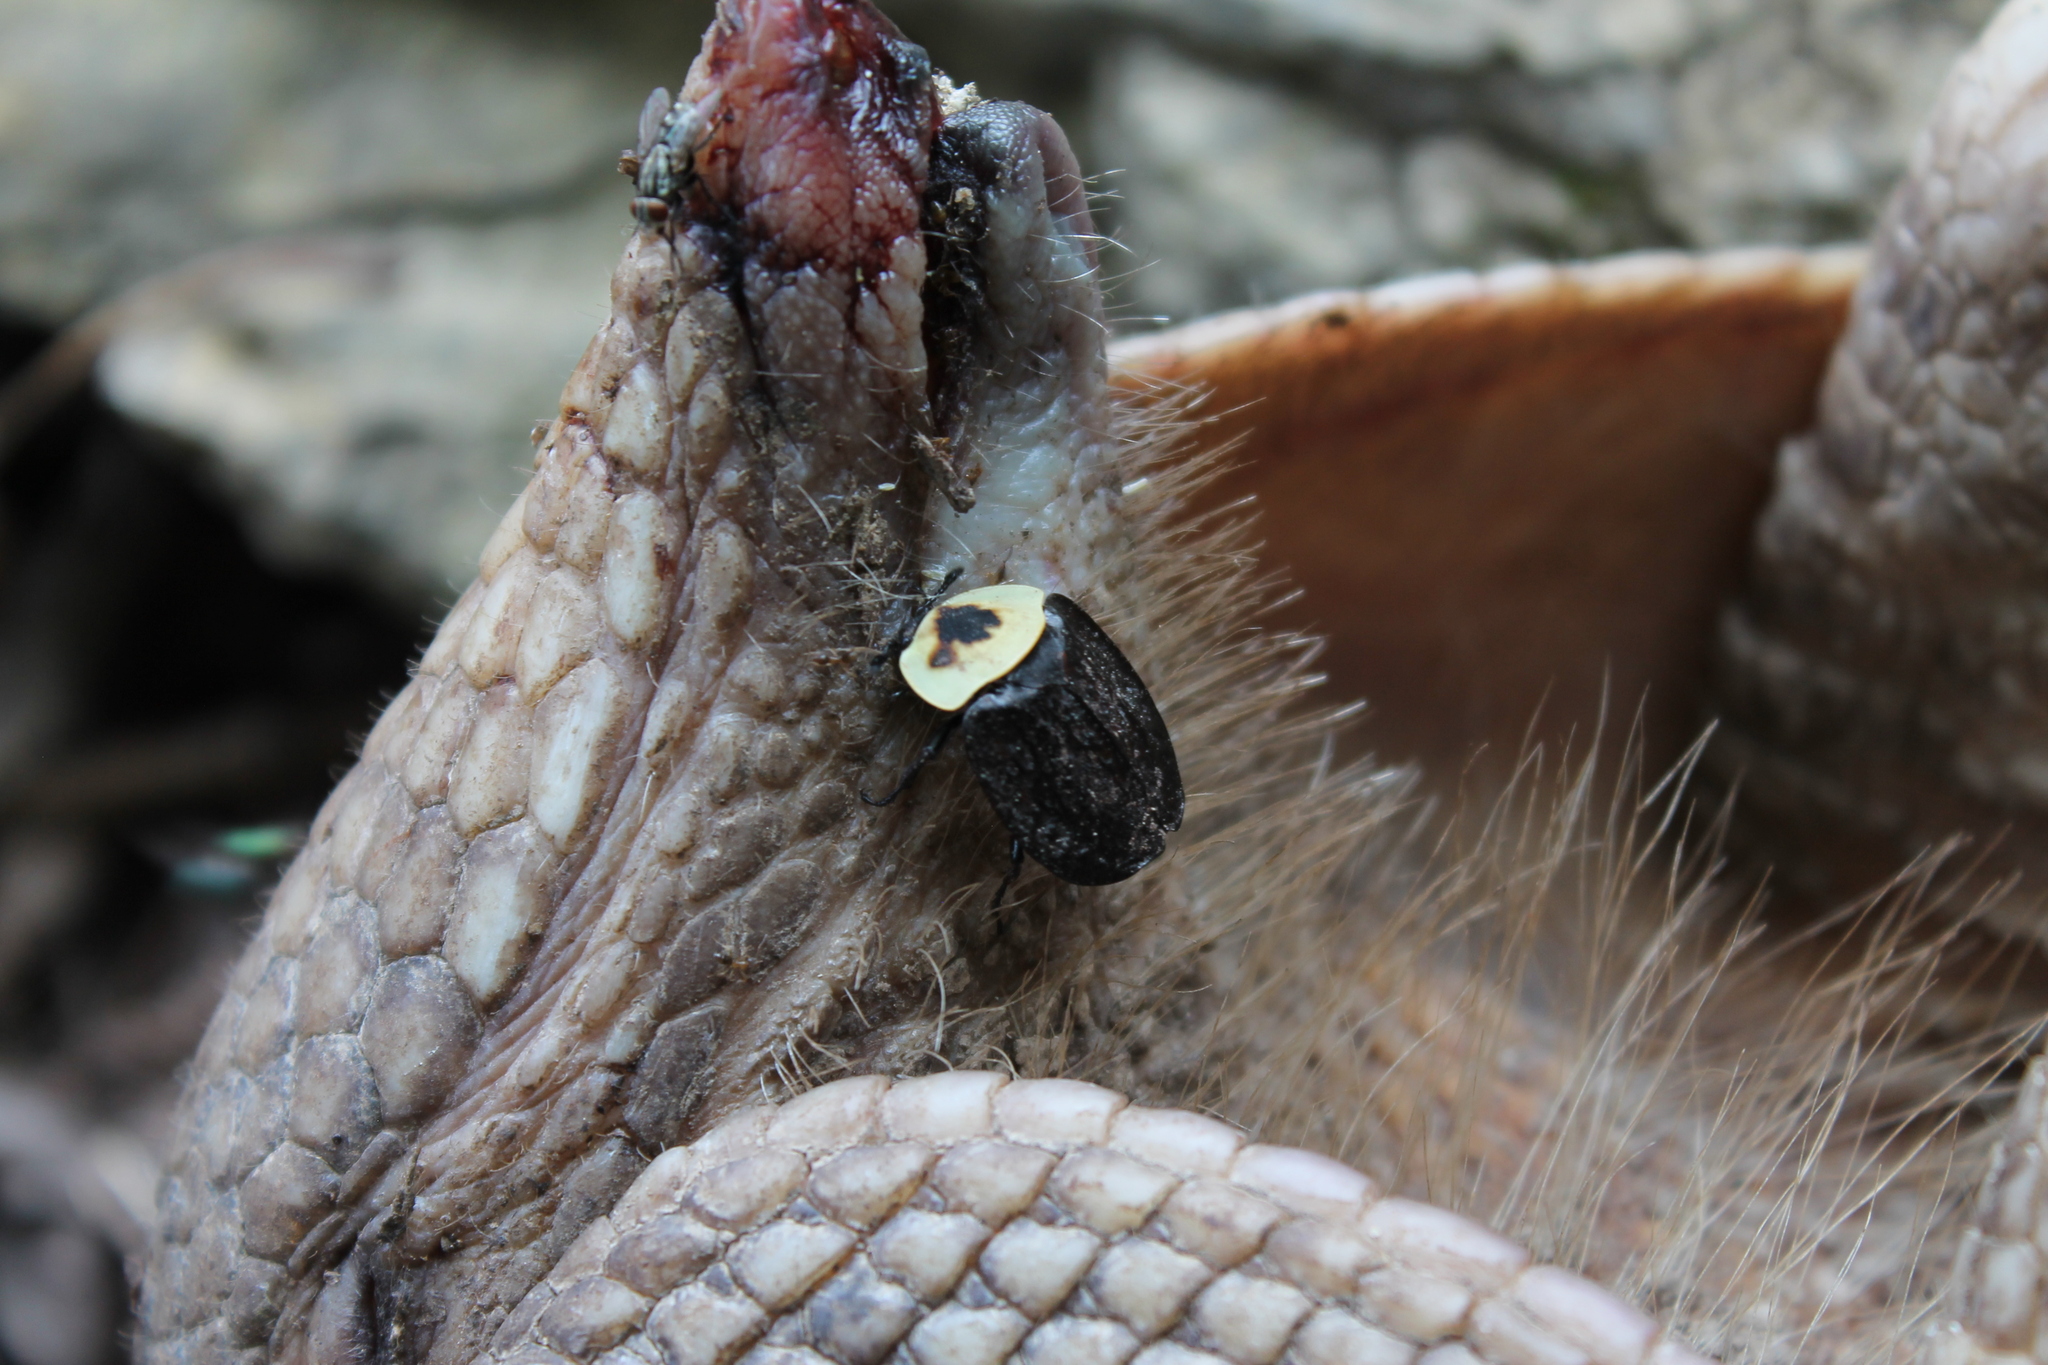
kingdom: Animalia
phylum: Arthropoda
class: Insecta
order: Coleoptera
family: Staphylinidae
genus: Necrophila
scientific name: Necrophila americana
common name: American carrion beetle
